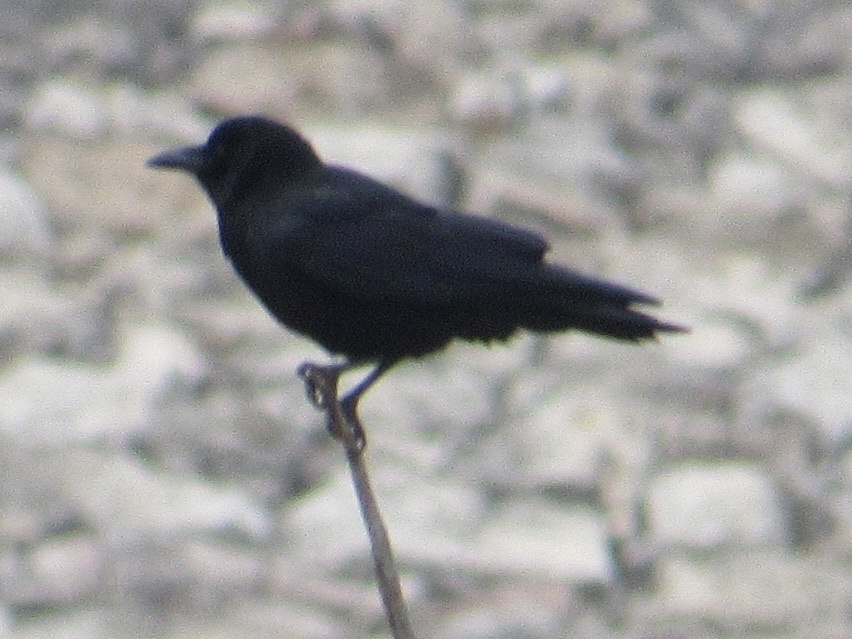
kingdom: Animalia
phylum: Chordata
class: Aves
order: Passeriformes
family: Corvidae
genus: Corvus
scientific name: Corvus brachyrhynchos
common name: American crow
